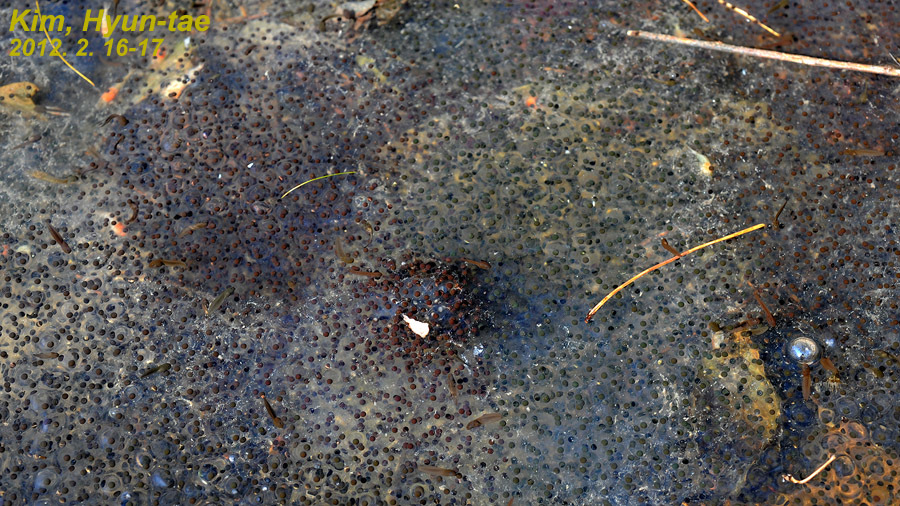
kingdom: Animalia
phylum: Chordata
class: Amphibia
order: Anura
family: Ranidae
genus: Rana
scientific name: Rana uenoi
